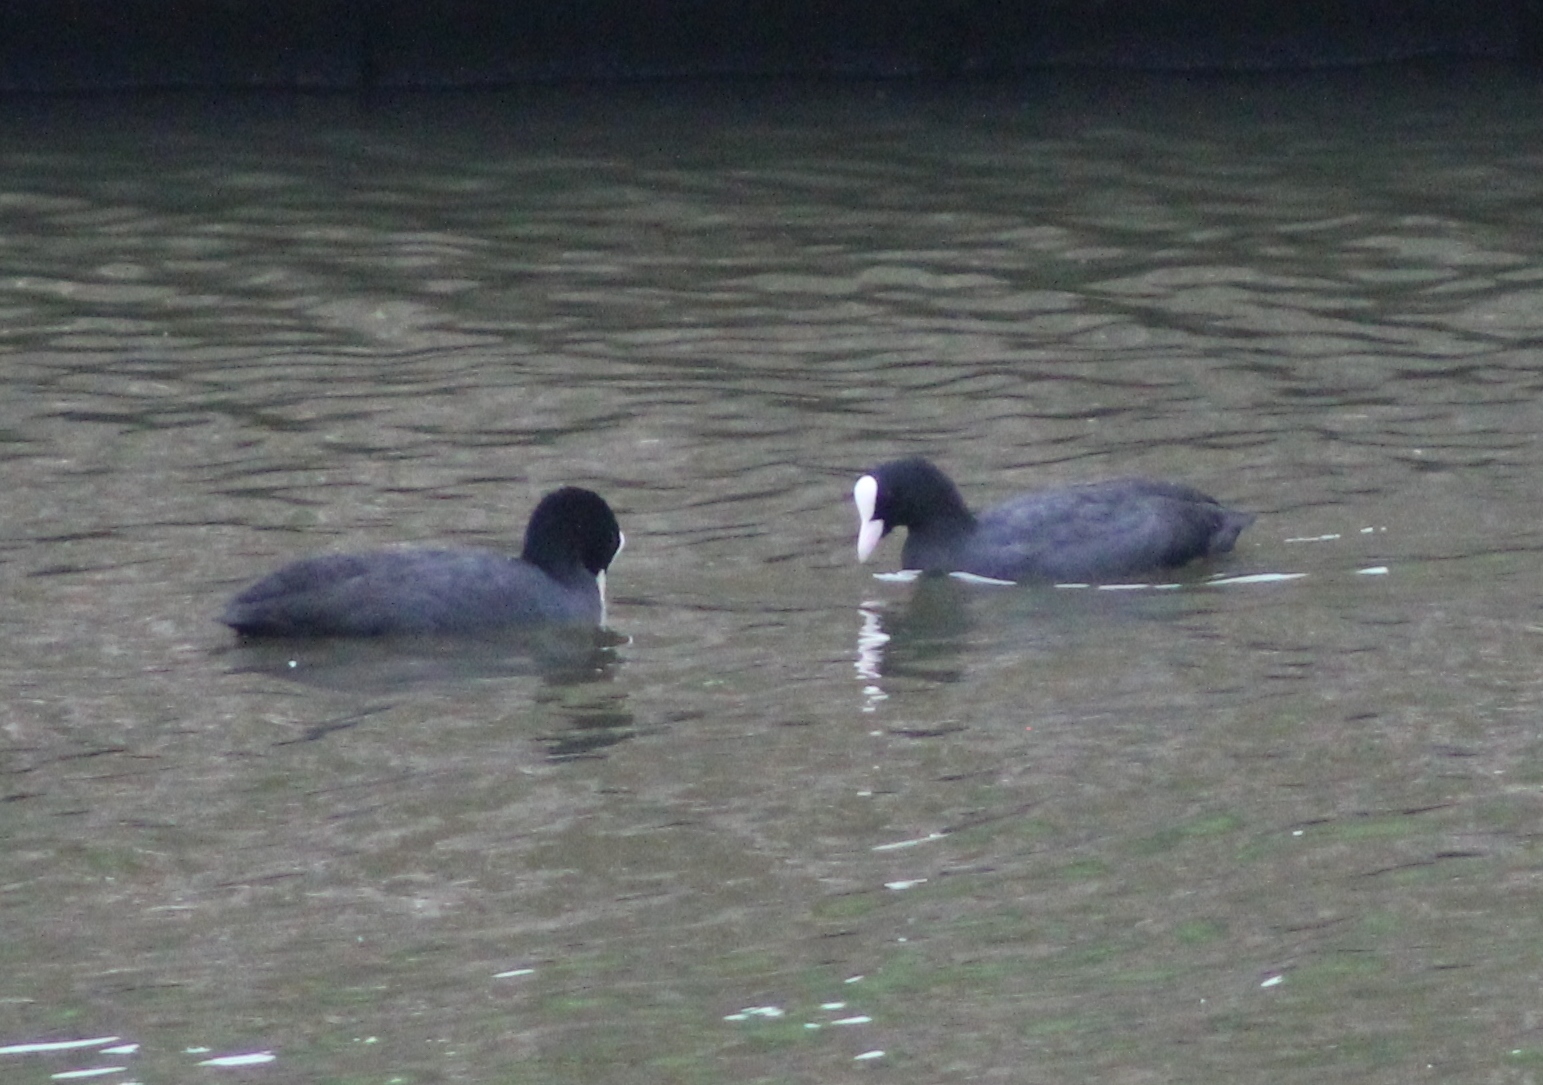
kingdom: Animalia
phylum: Chordata
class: Aves
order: Gruiformes
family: Rallidae
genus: Fulica
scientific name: Fulica atra
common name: Eurasian coot
